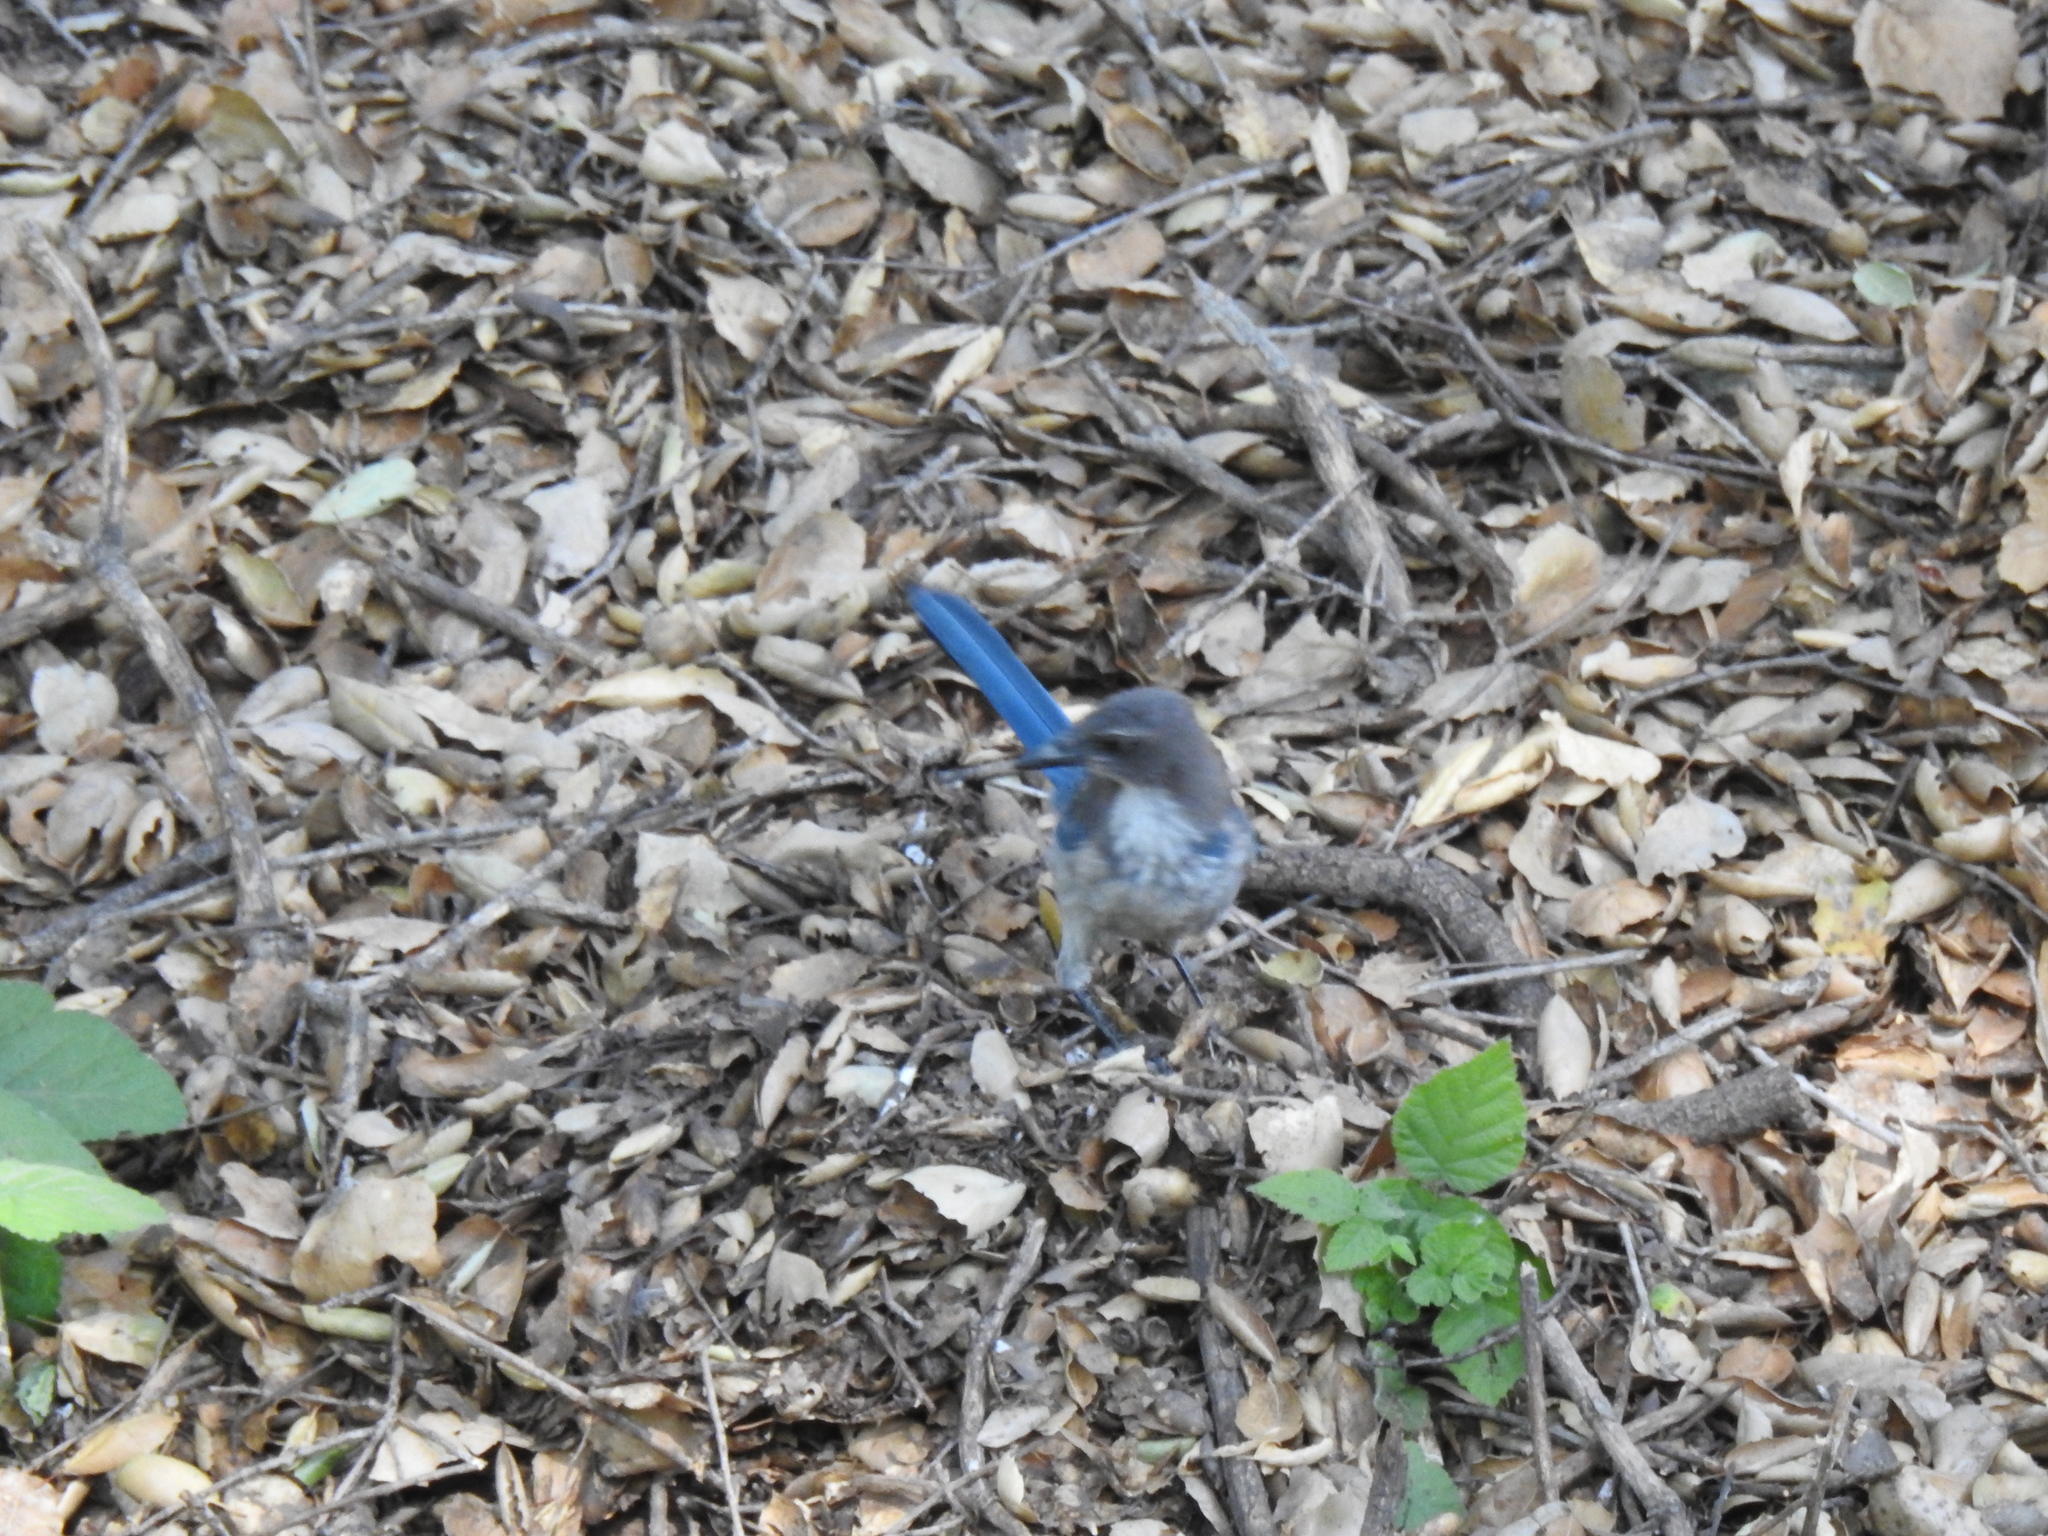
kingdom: Animalia
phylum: Chordata
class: Aves
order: Passeriformes
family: Corvidae
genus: Aphelocoma
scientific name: Aphelocoma californica
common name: California scrub-jay
